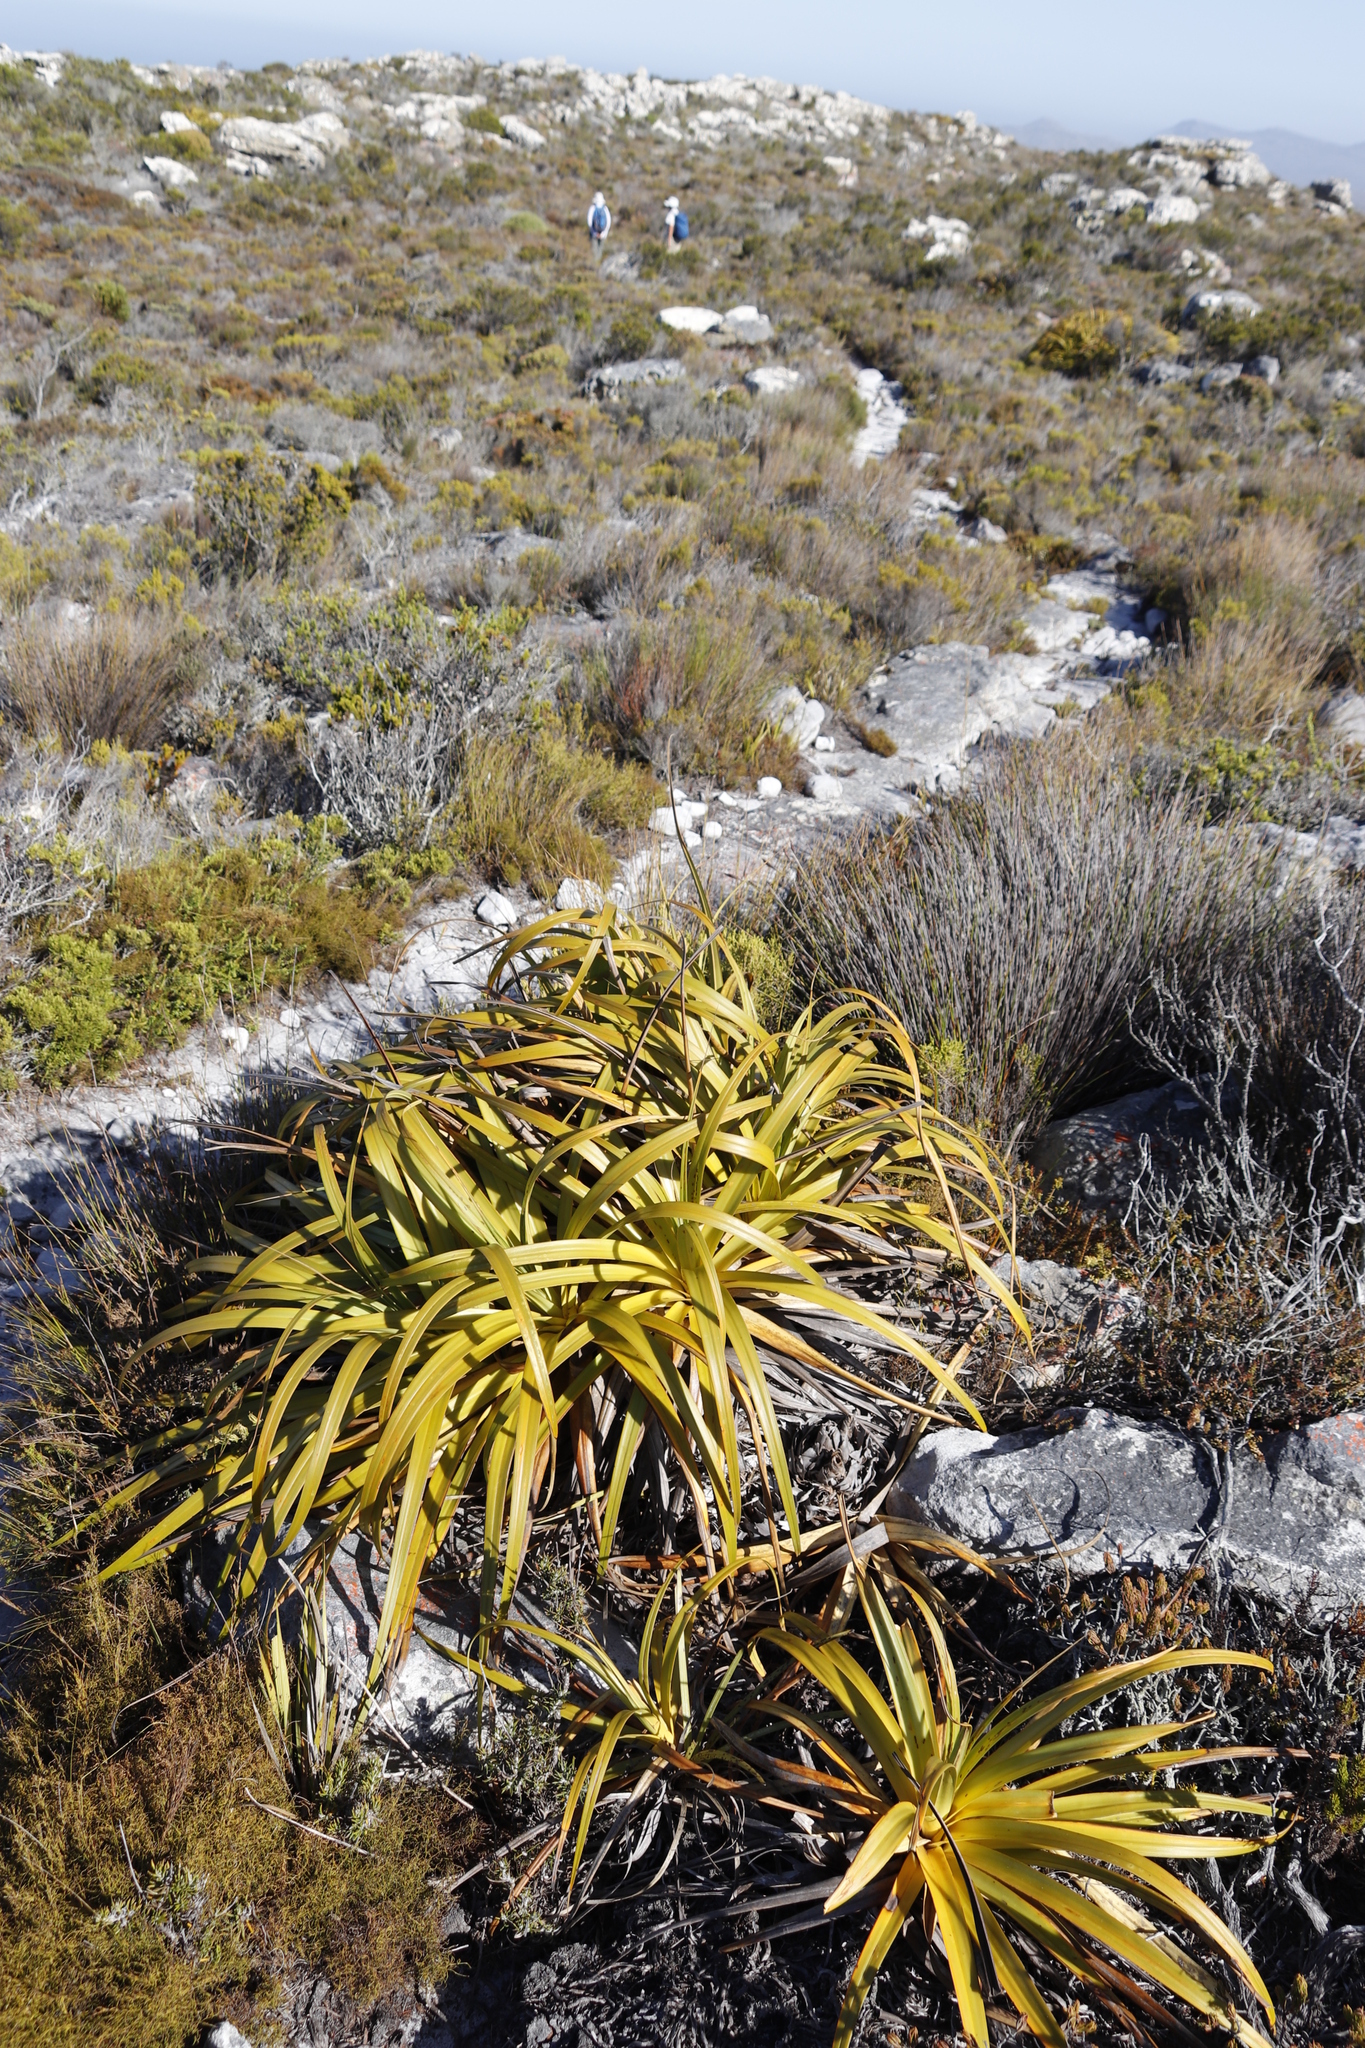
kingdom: Plantae
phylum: Tracheophyta
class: Liliopsida
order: Poales
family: Cyperaceae
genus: Tetraria
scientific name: Tetraria thermalis
